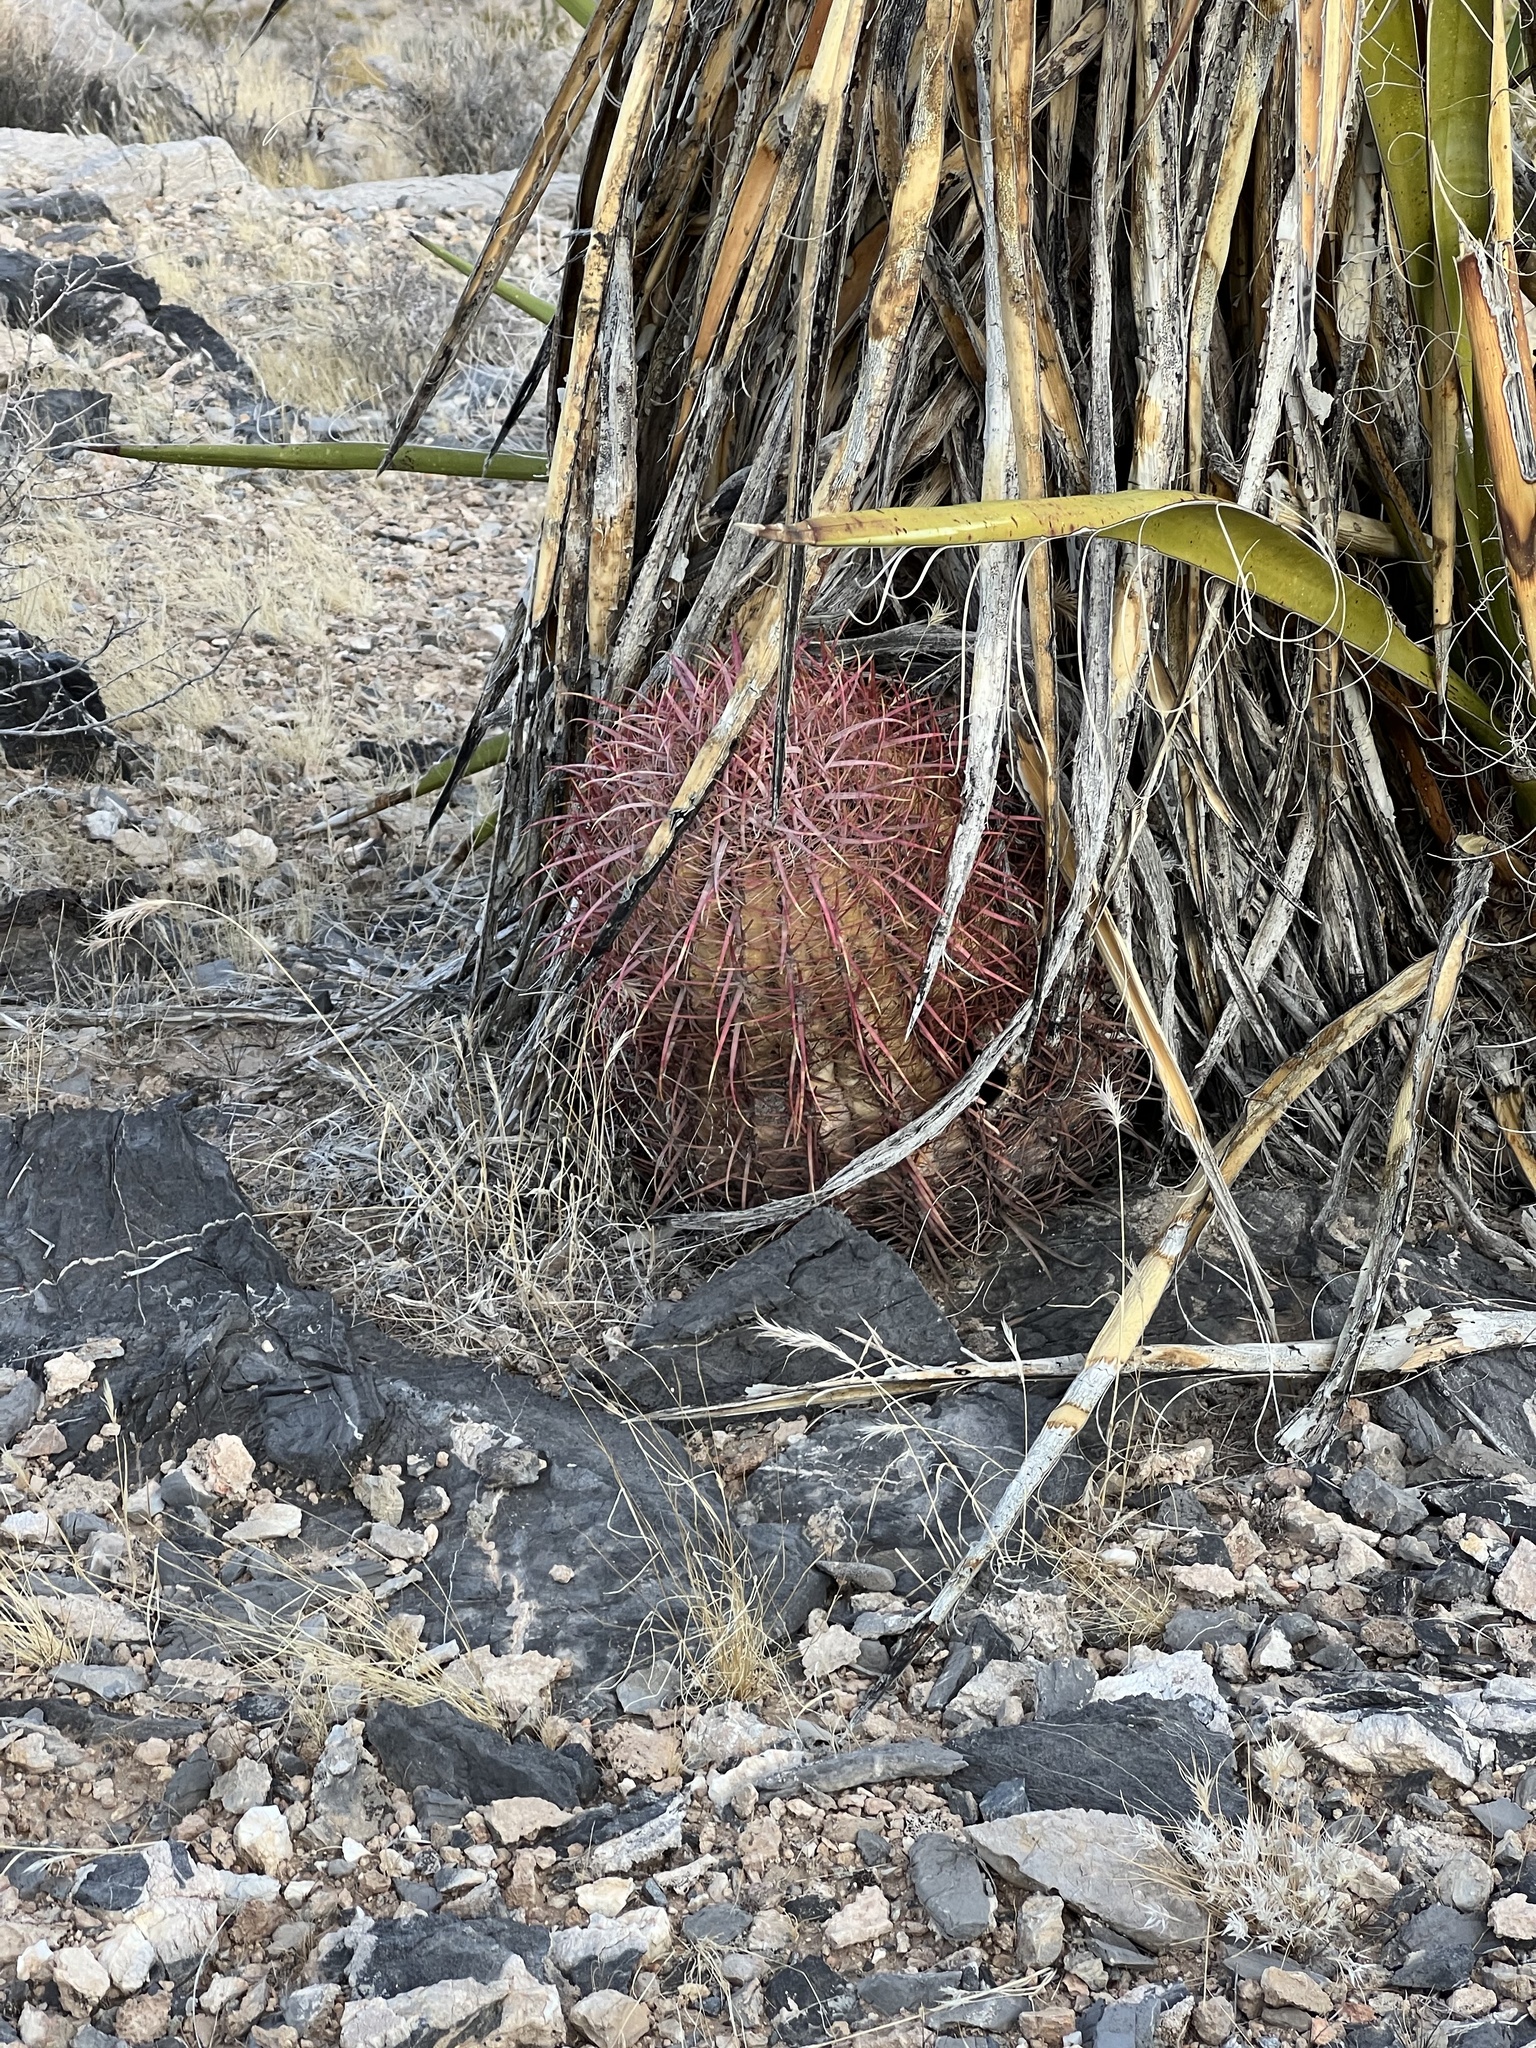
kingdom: Plantae
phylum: Tracheophyta
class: Magnoliopsida
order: Caryophyllales
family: Cactaceae
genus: Ferocactus
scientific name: Ferocactus cylindraceus
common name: California barrel cactus
